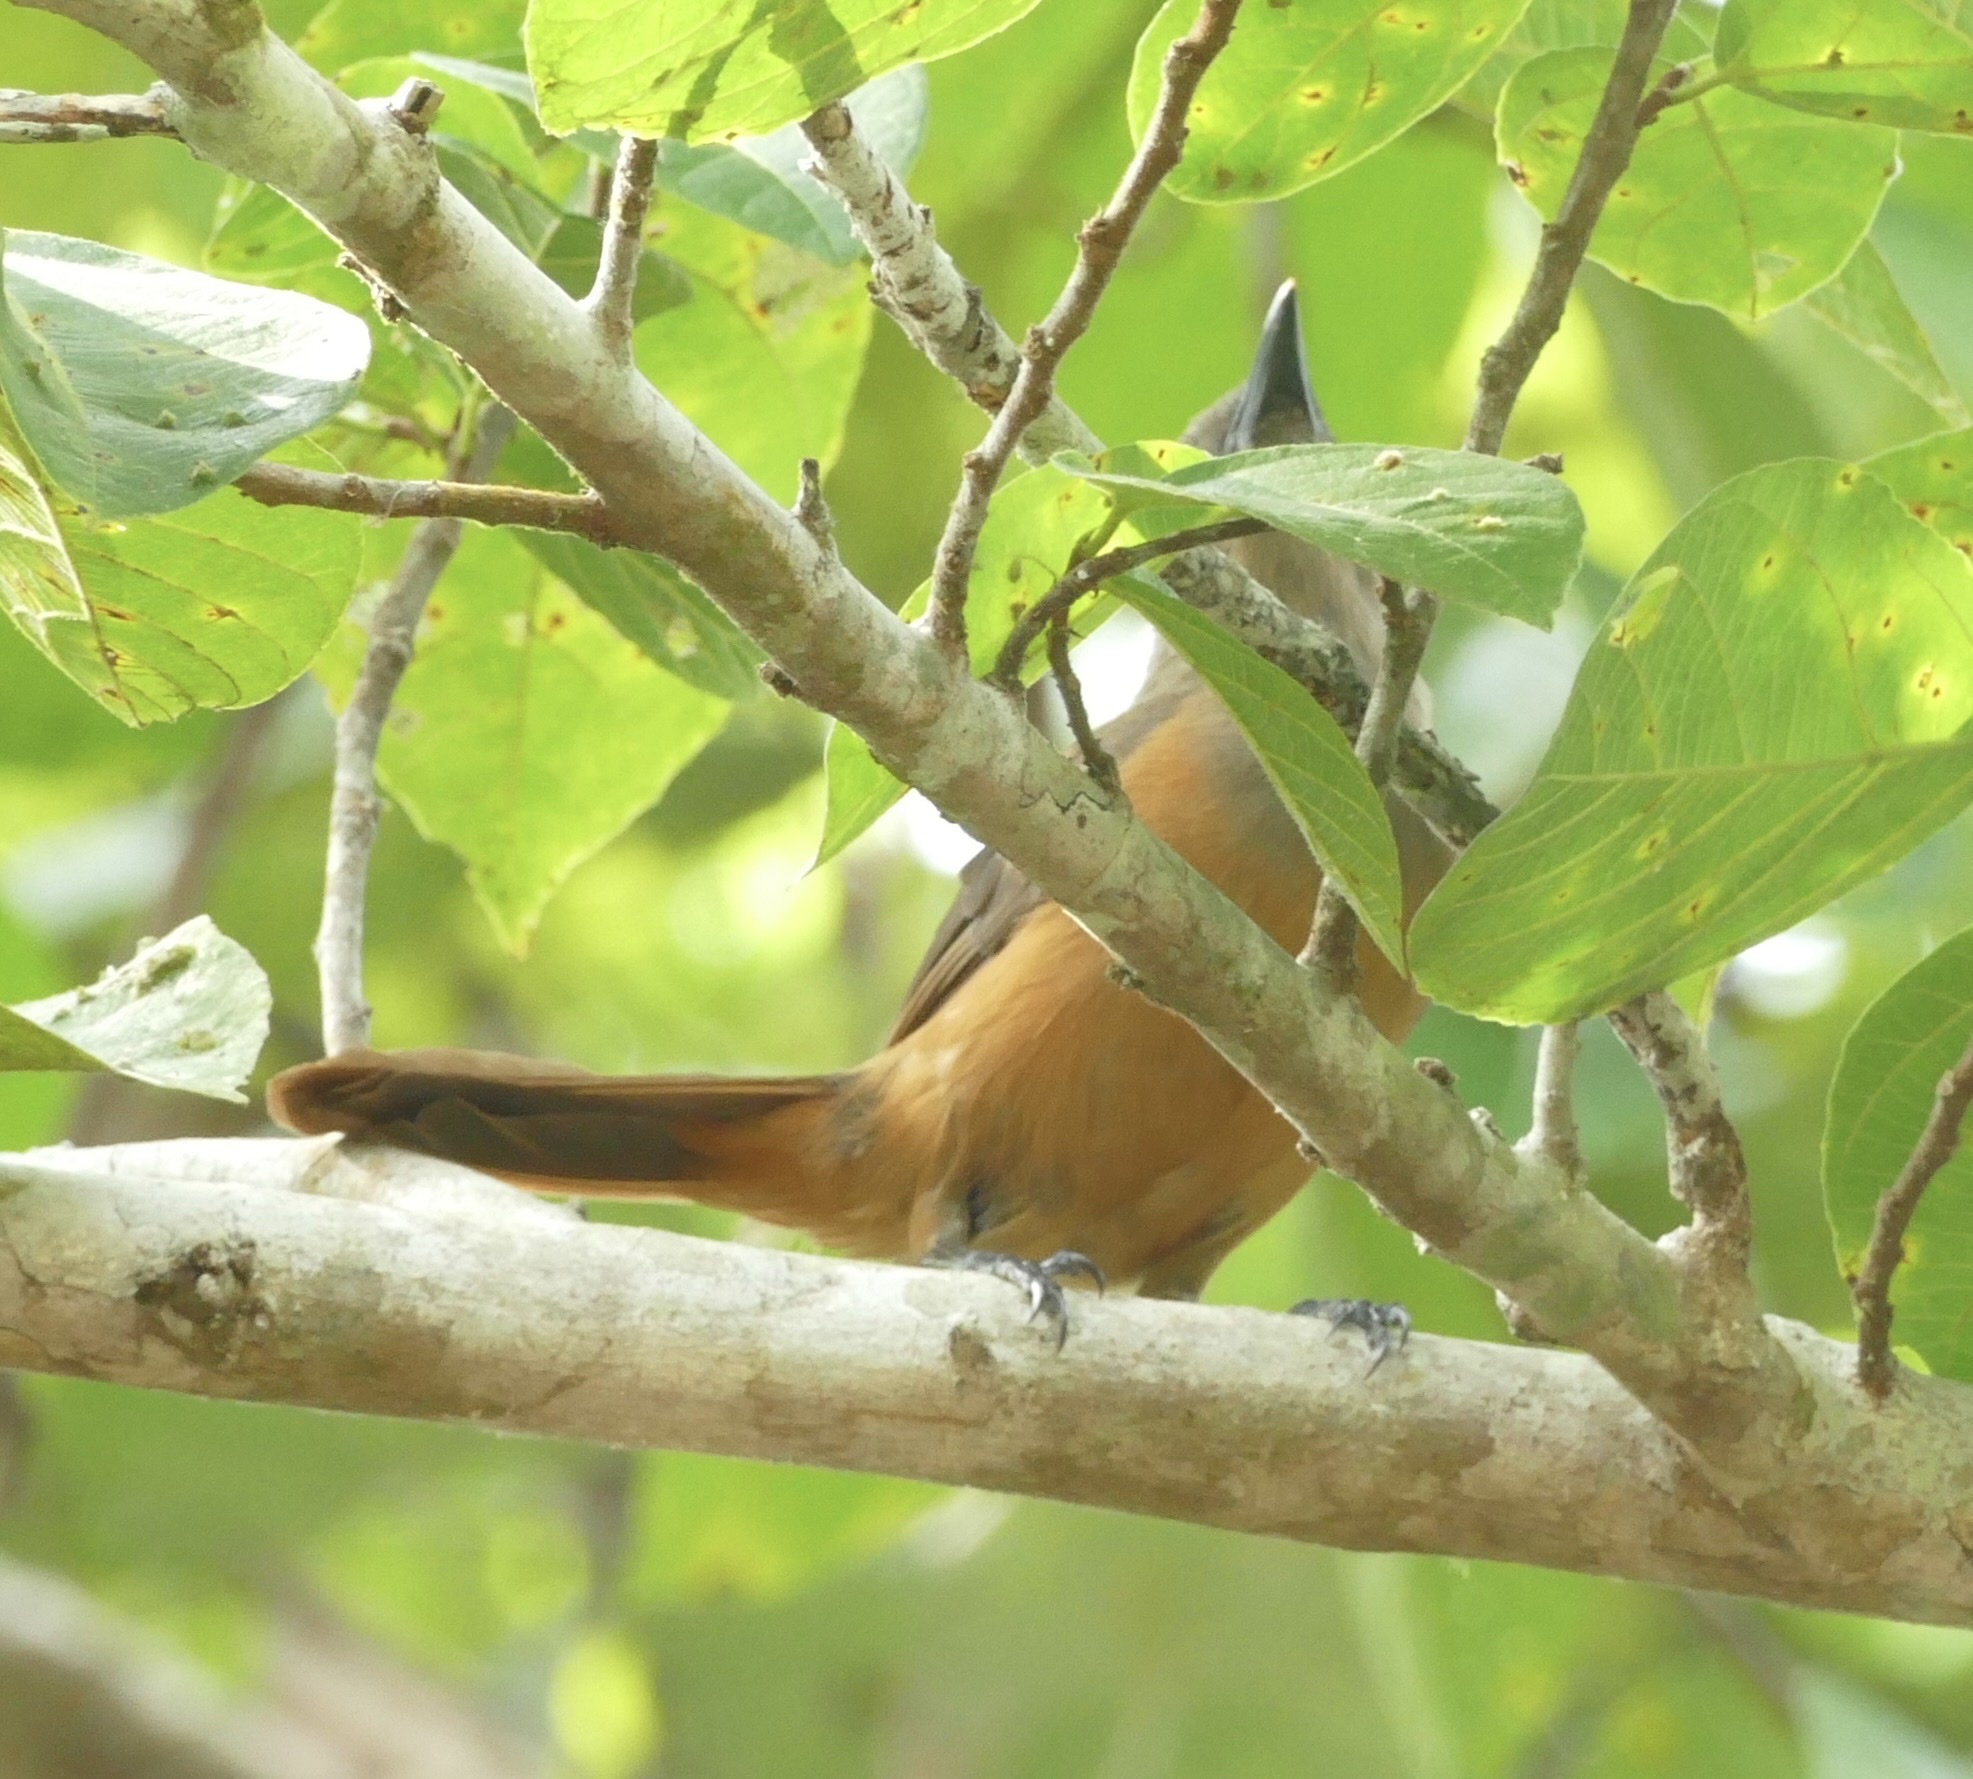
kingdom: Animalia
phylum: Chordata
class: Aves
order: Passeriformes
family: Oriolidae
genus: Pitohui
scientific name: Pitohui cerviniventris
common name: Raja ampat pitohui
